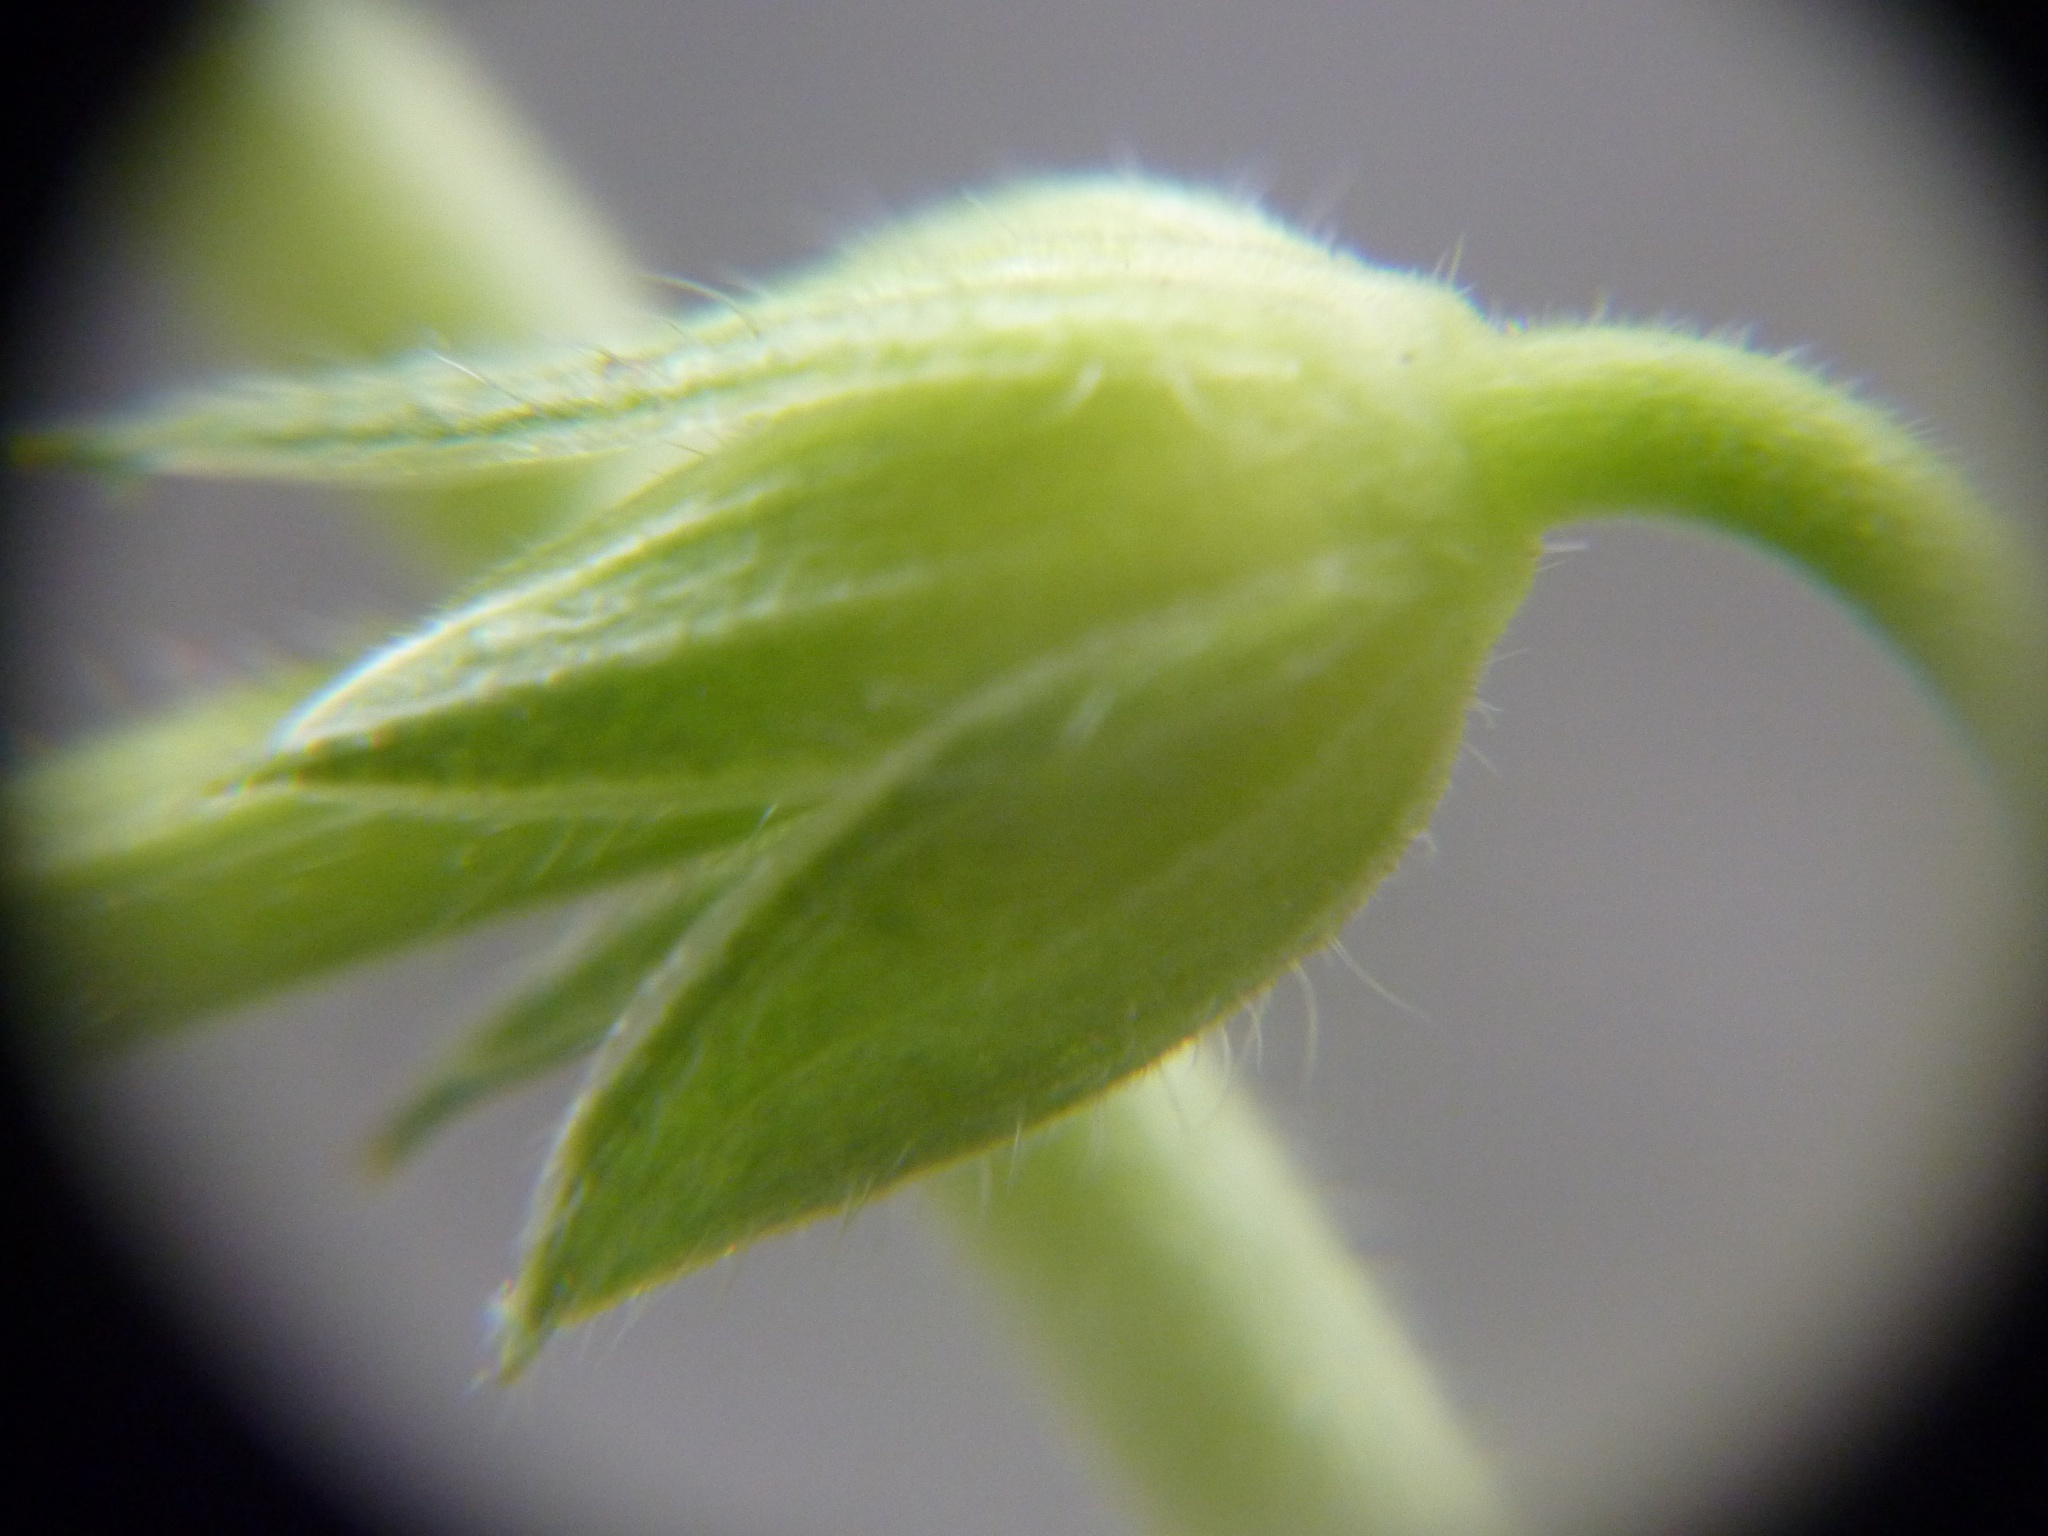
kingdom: Plantae
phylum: Tracheophyta
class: Magnoliopsida
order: Geraniales
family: Geraniaceae
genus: Geranium
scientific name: Geranium retrorsum
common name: New zealand geranium
